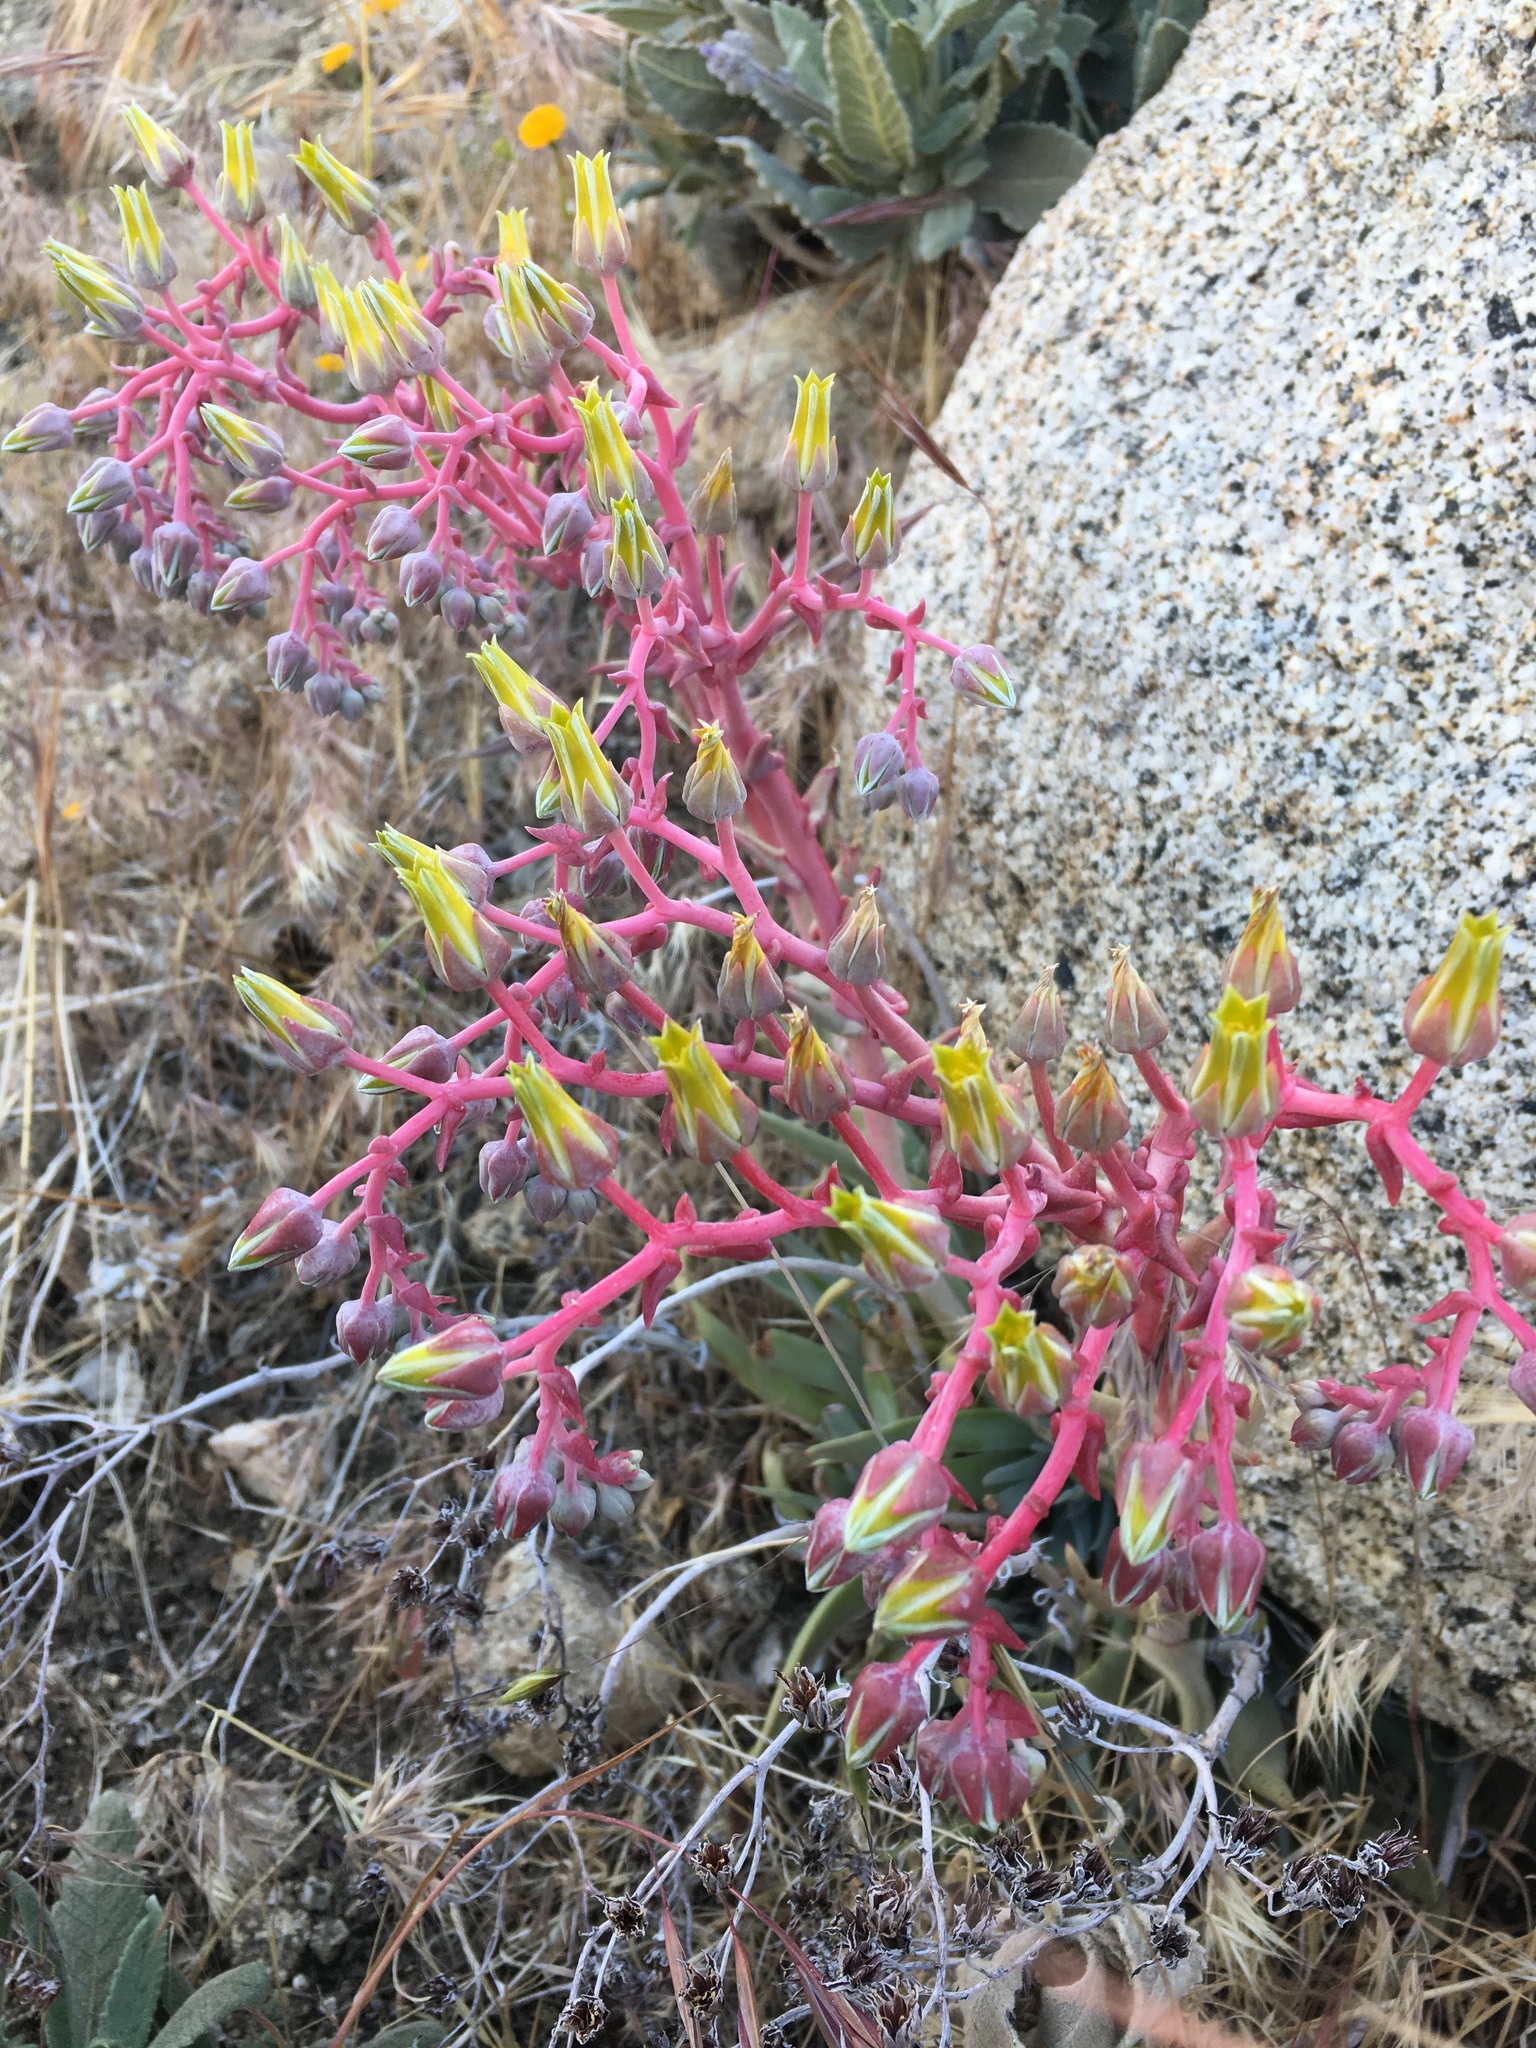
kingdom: Plantae
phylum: Tracheophyta
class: Magnoliopsida
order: Saxifragales
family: Crassulaceae
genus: Dudleya
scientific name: Dudleya saxosa
